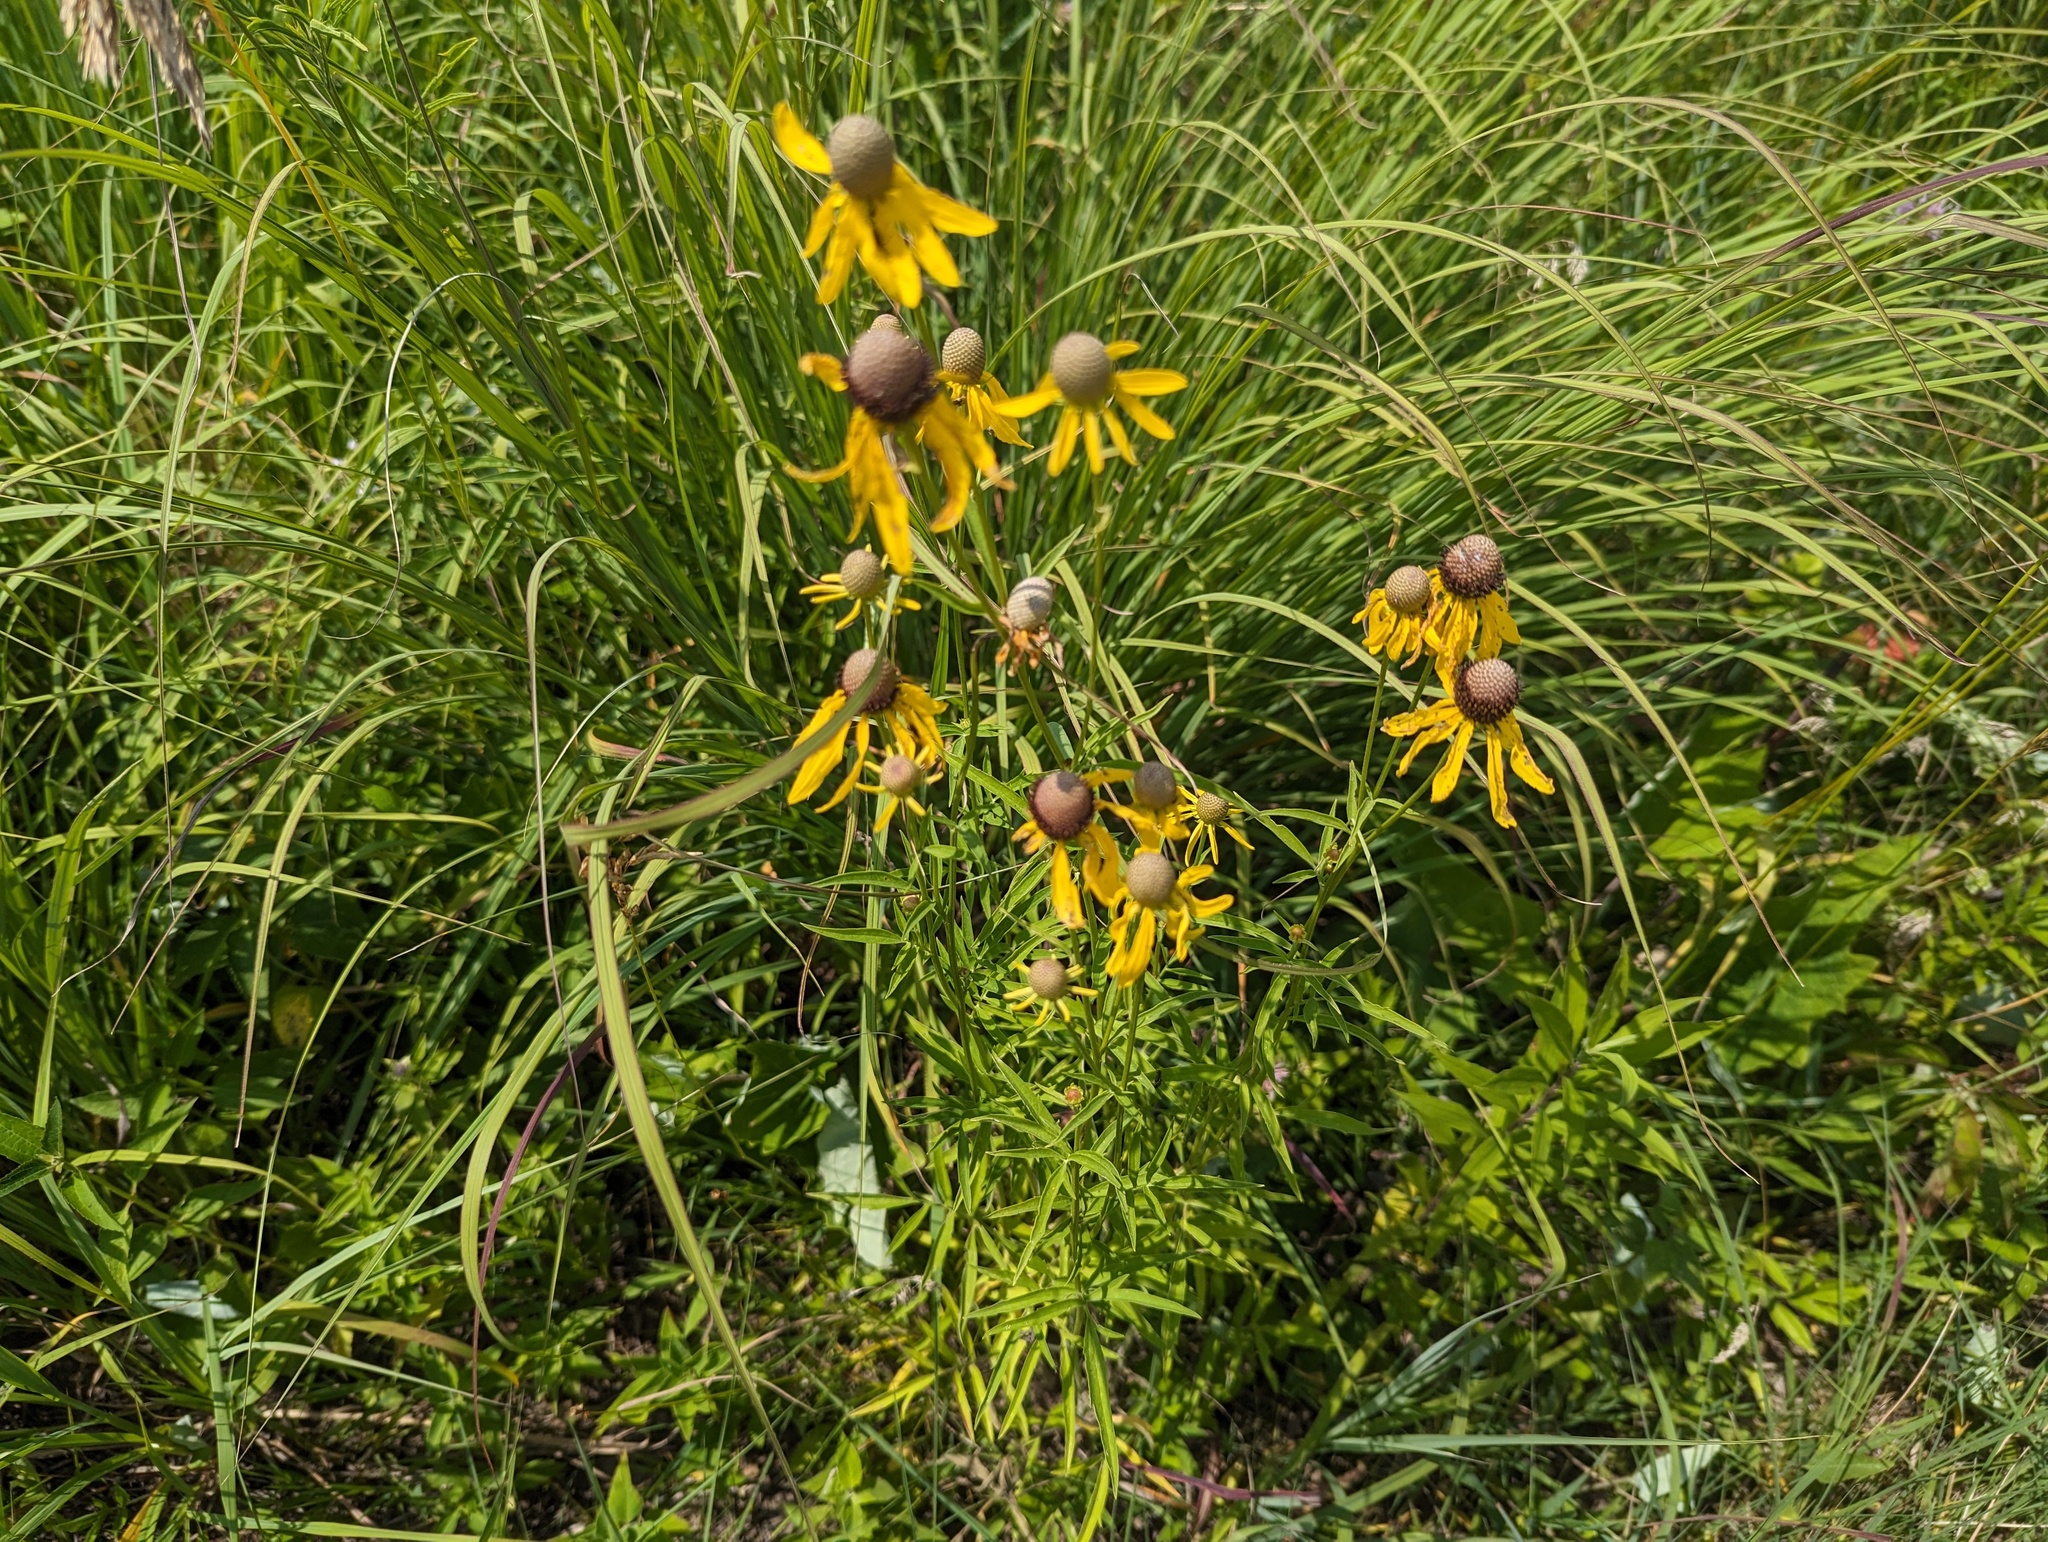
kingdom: Plantae
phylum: Tracheophyta
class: Magnoliopsida
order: Asterales
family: Asteraceae
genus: Ratibida
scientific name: Ratibida pinnata
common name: Drooping prairie-coneflower
